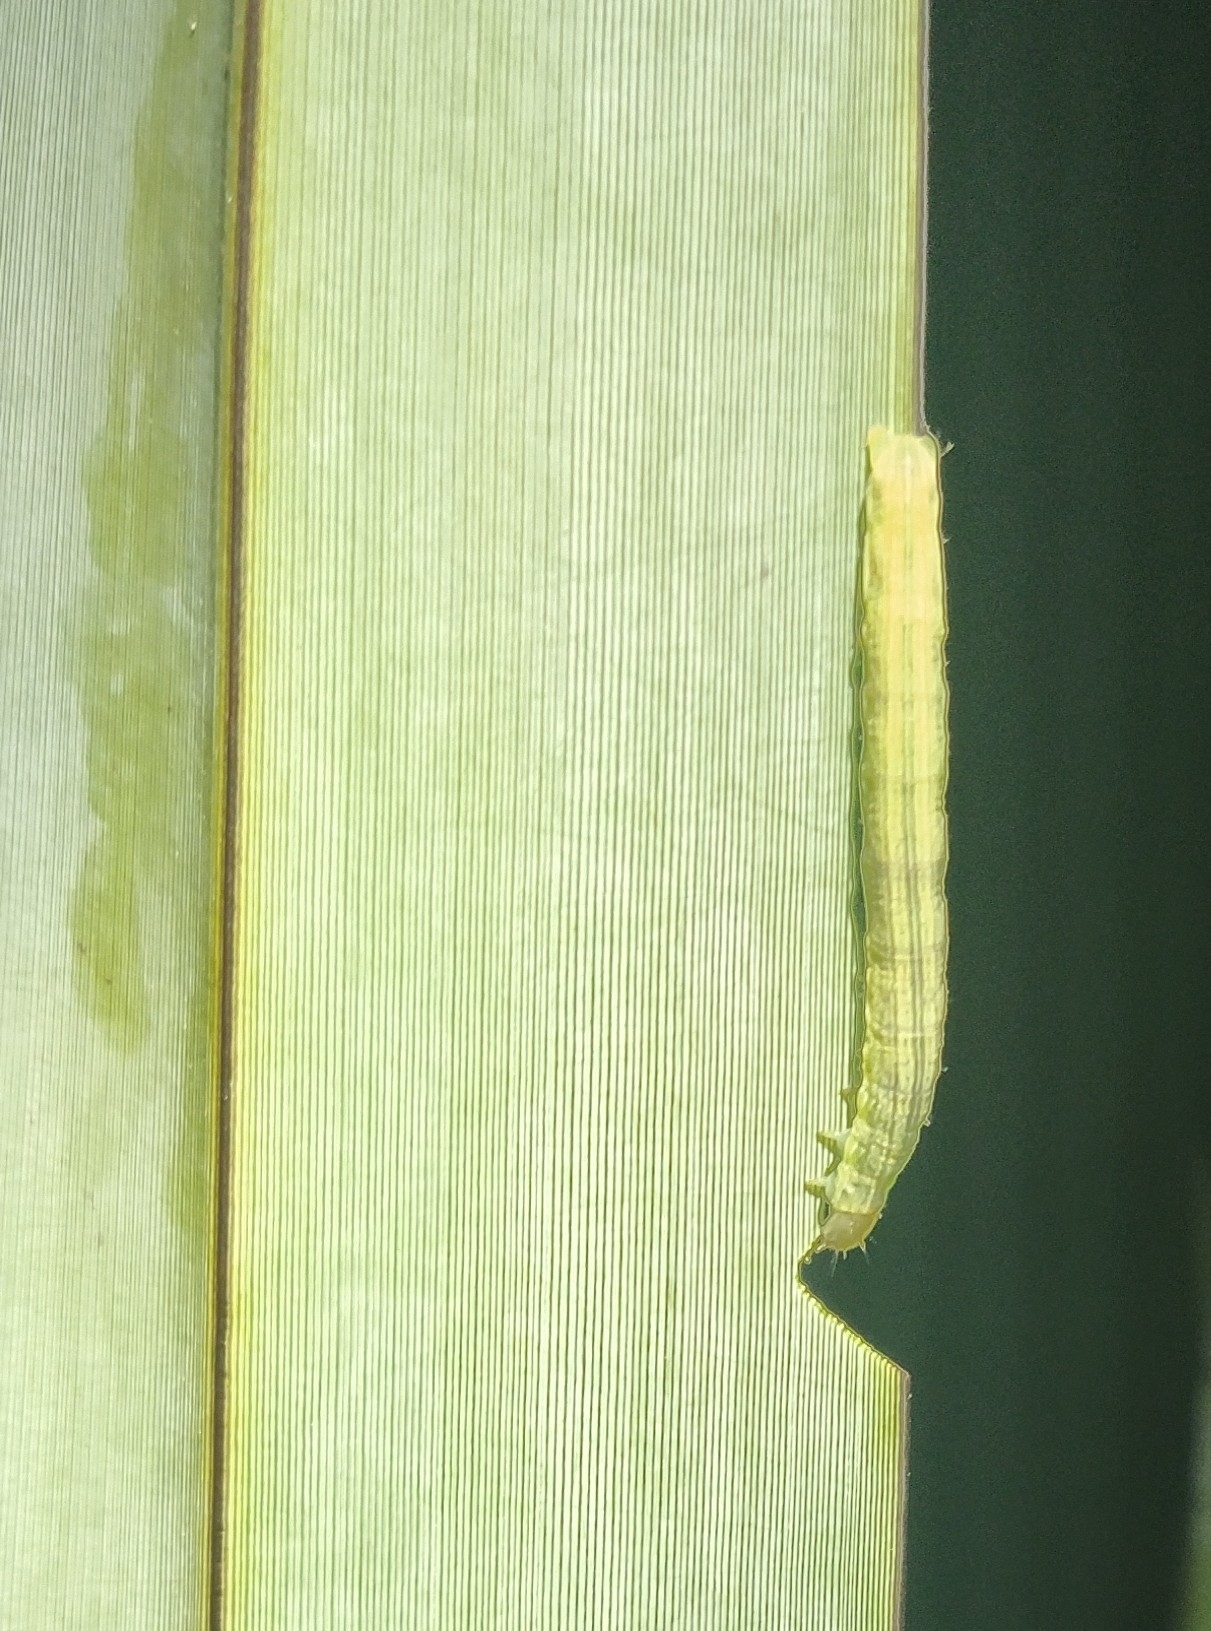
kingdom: Animalia
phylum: Arthropoda
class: Insecta
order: Lepidoptera
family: Noctuidae
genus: Ichneutica
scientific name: Ichneutica
